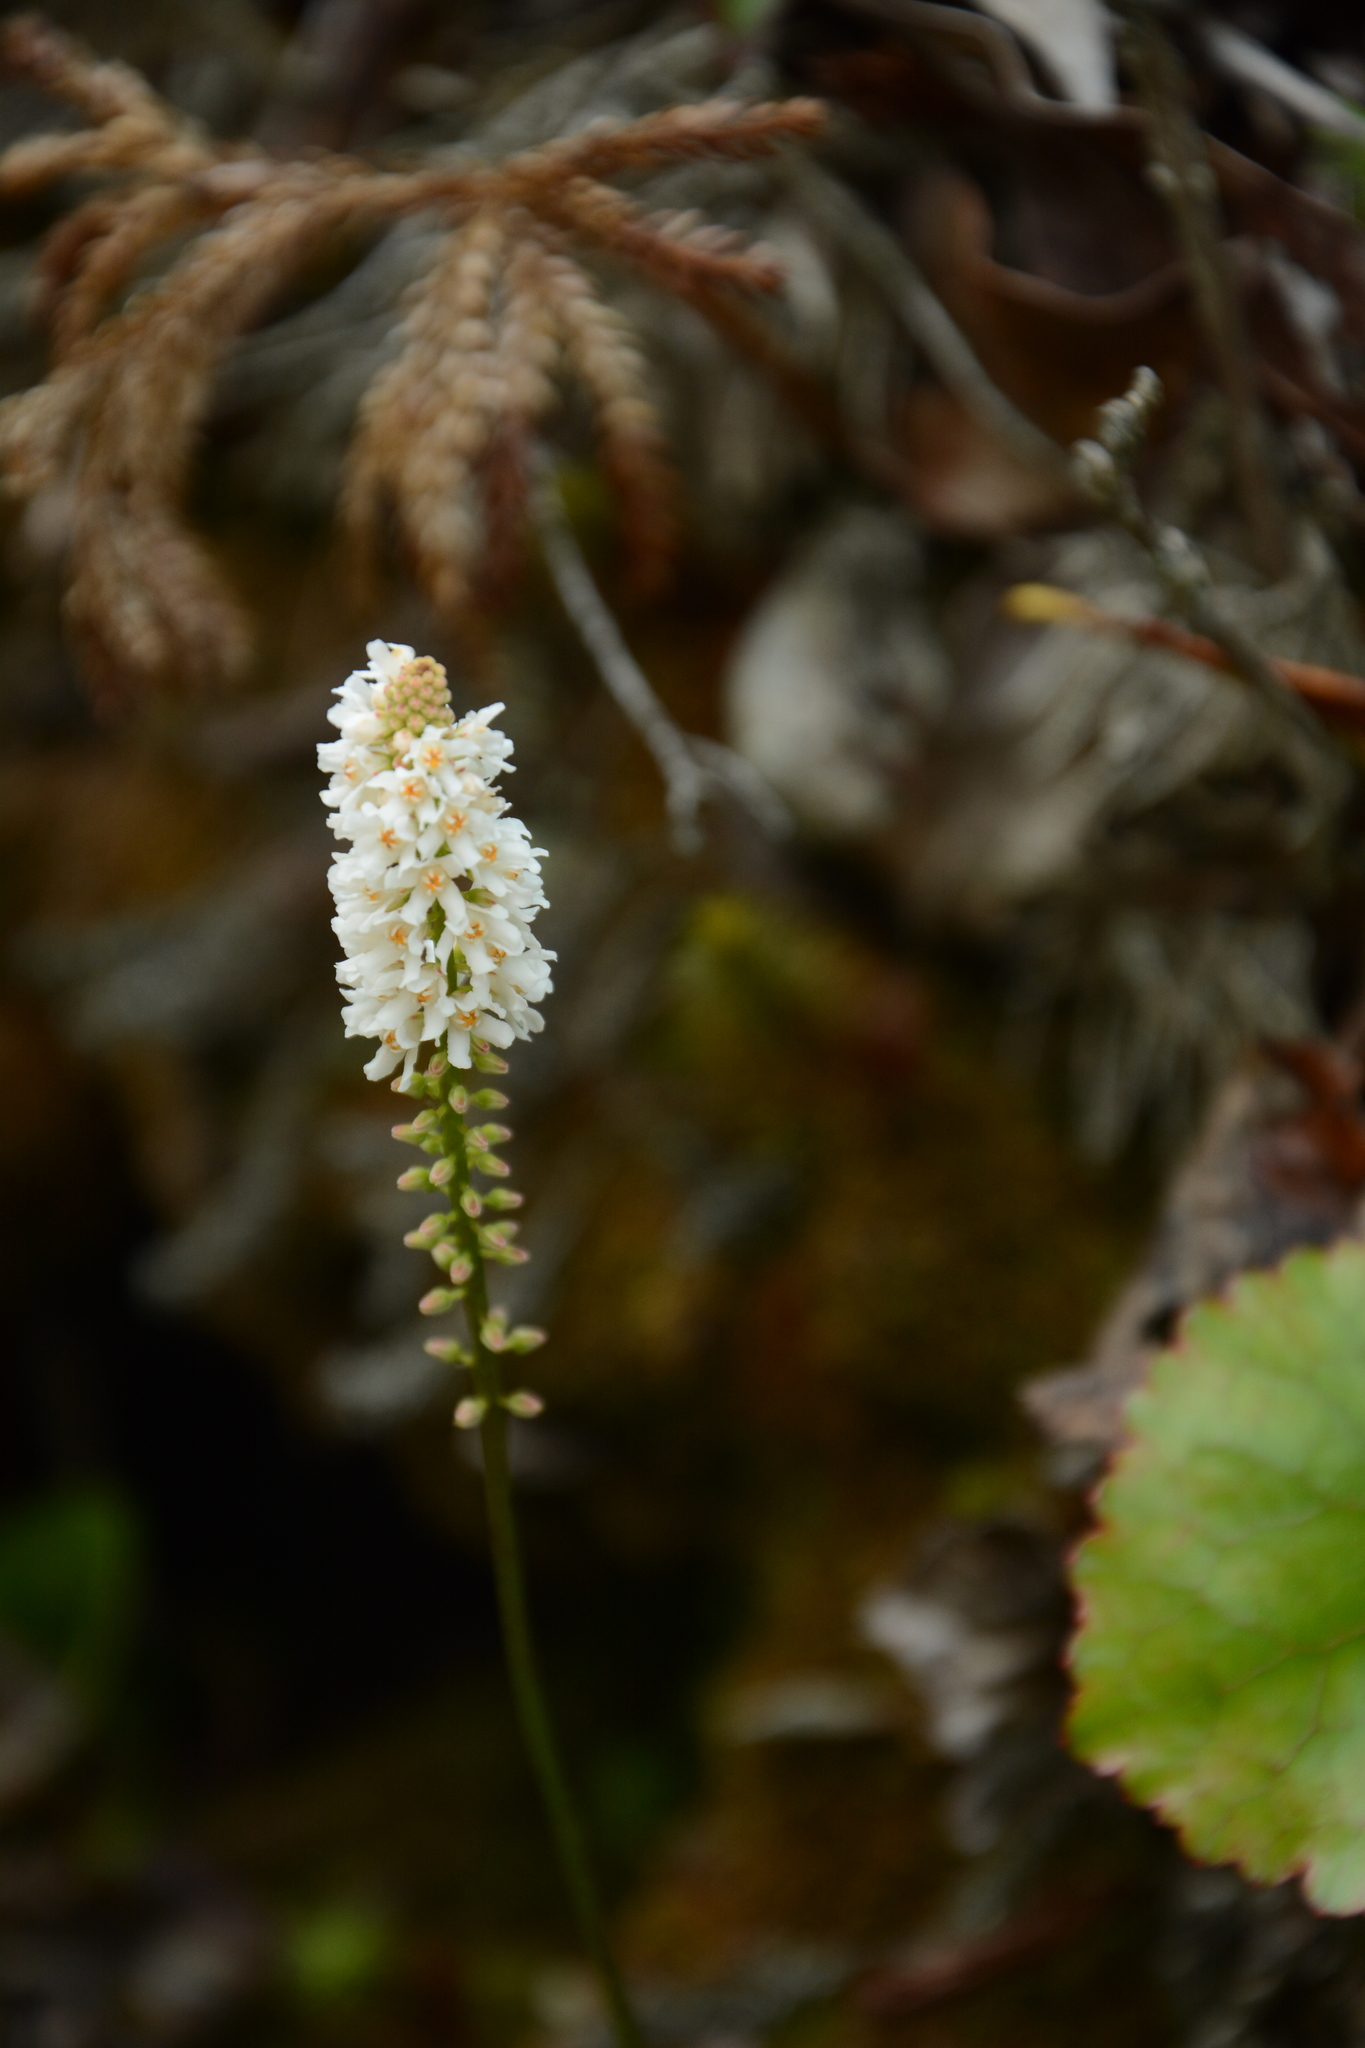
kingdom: Plantae
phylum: Tracheophyta
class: Magnoliopsida
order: Ericales
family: Diapensiaceae
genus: Galax
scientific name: Galax urceolata
